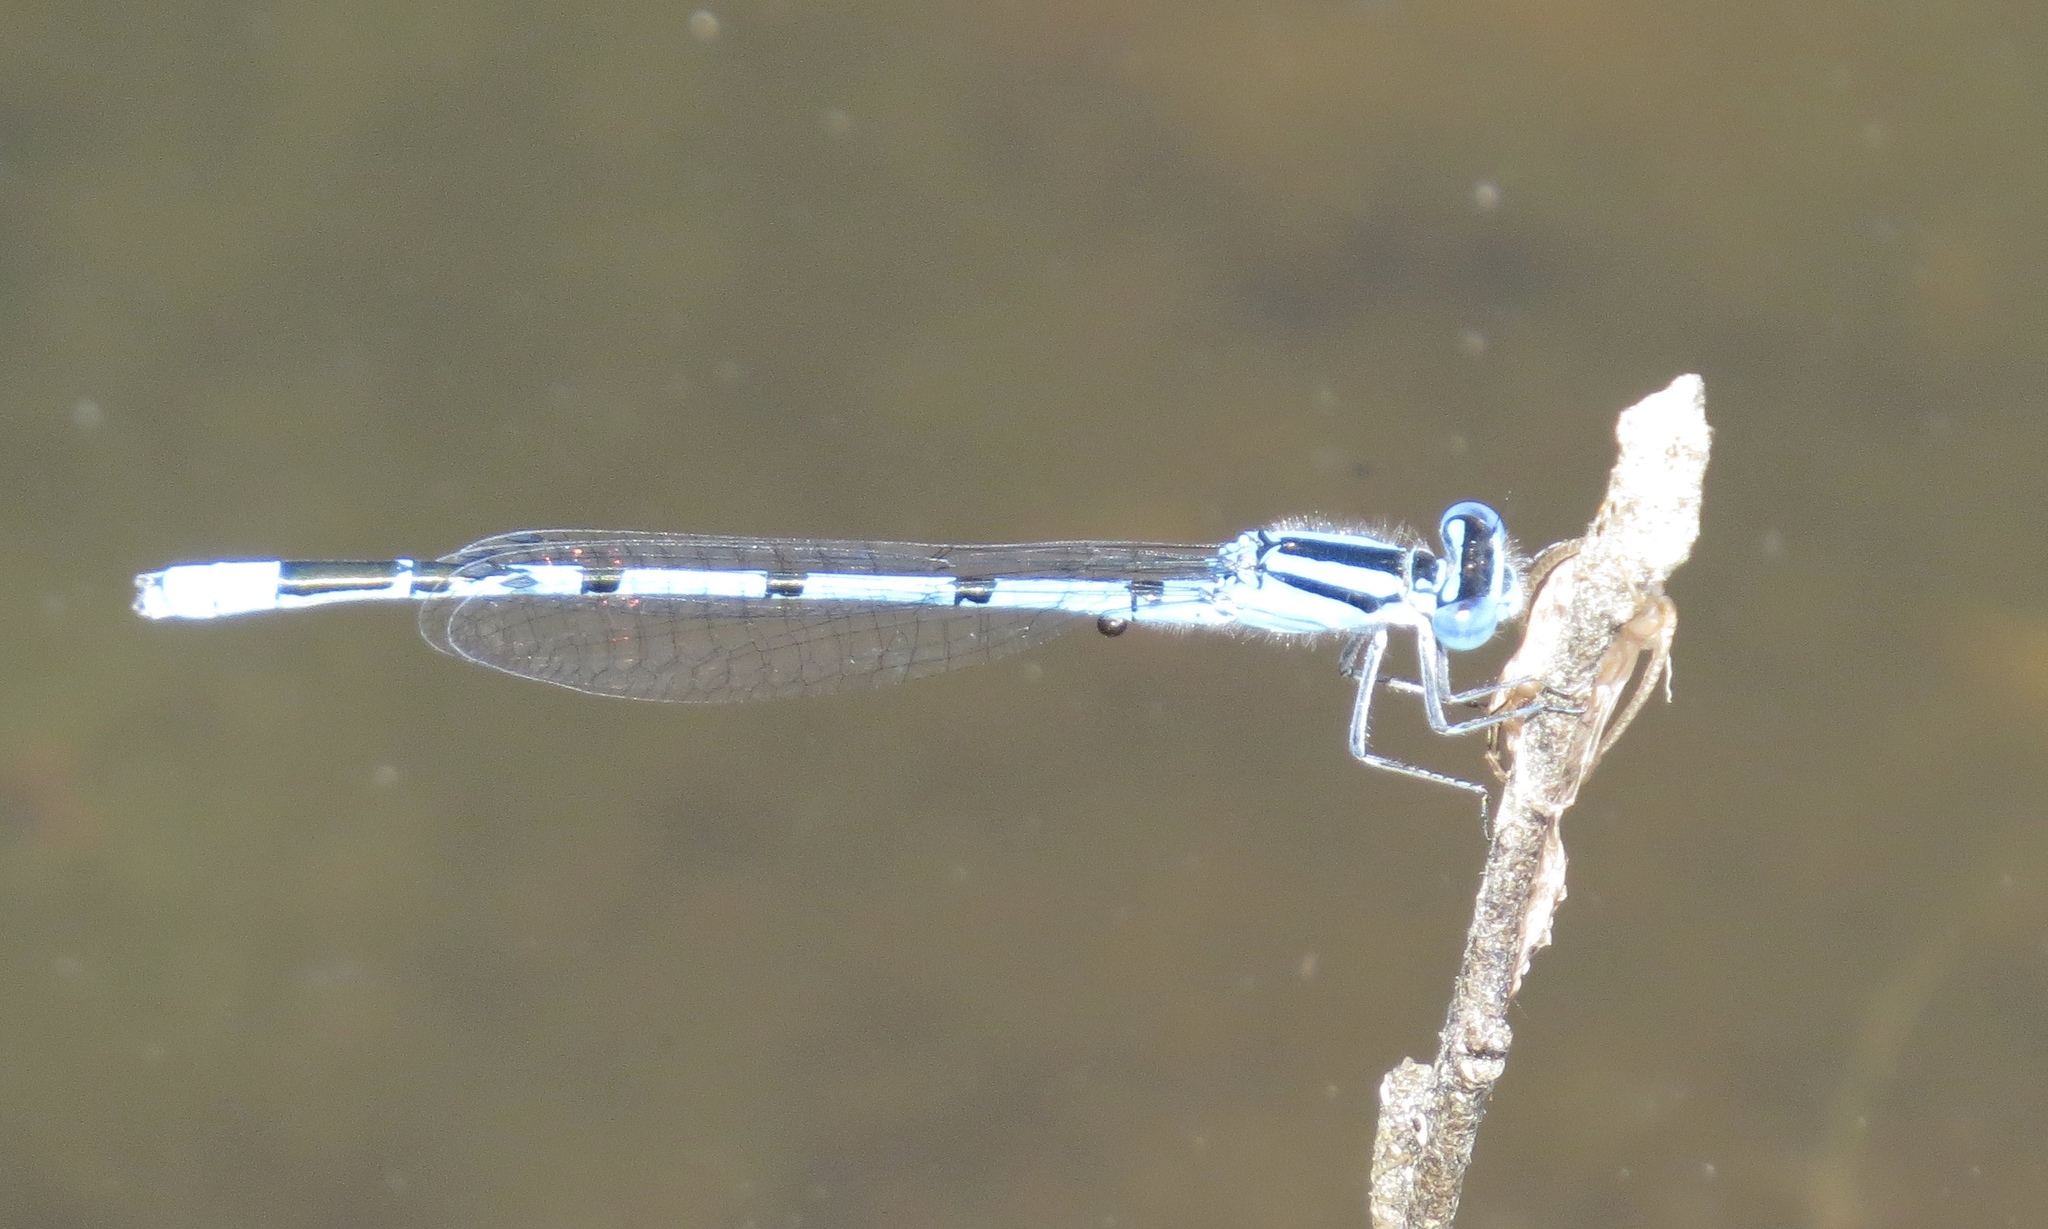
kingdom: Animalia
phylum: Arthropoda
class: Insecta
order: Odonata
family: Coenagrionidae
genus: Enallagma
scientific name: Enallagma doubledayi
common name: Atlantic bluet
